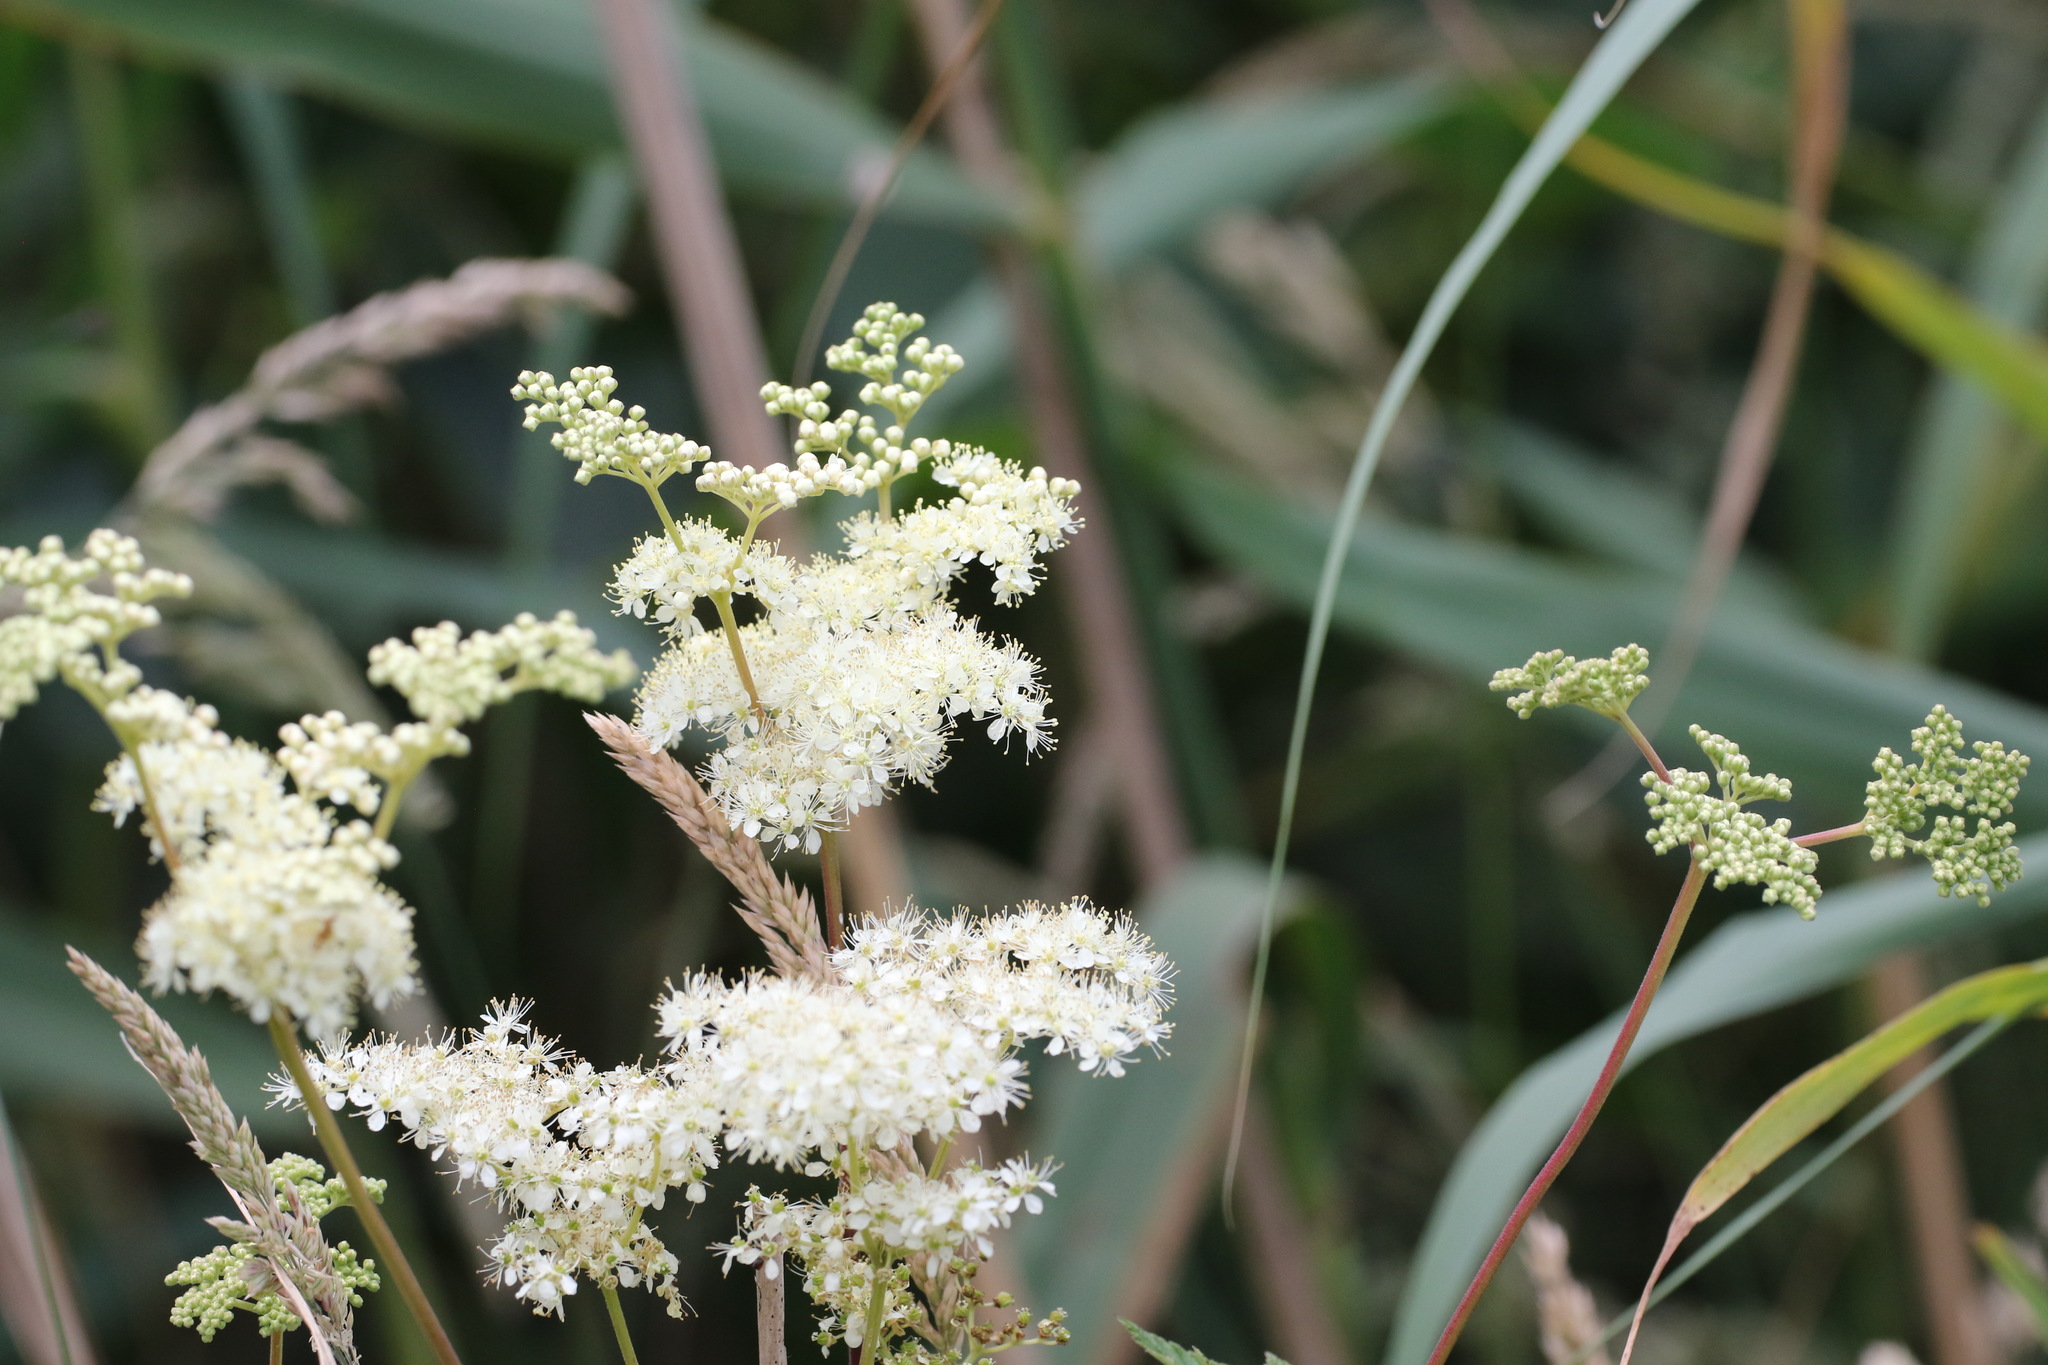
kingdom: Plantae
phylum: Tracheophyta
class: Magnoliopsida
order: Rosales
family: Rosaceae
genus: Filipendula
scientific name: Filipendula ulmaria
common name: Meadowsweet
